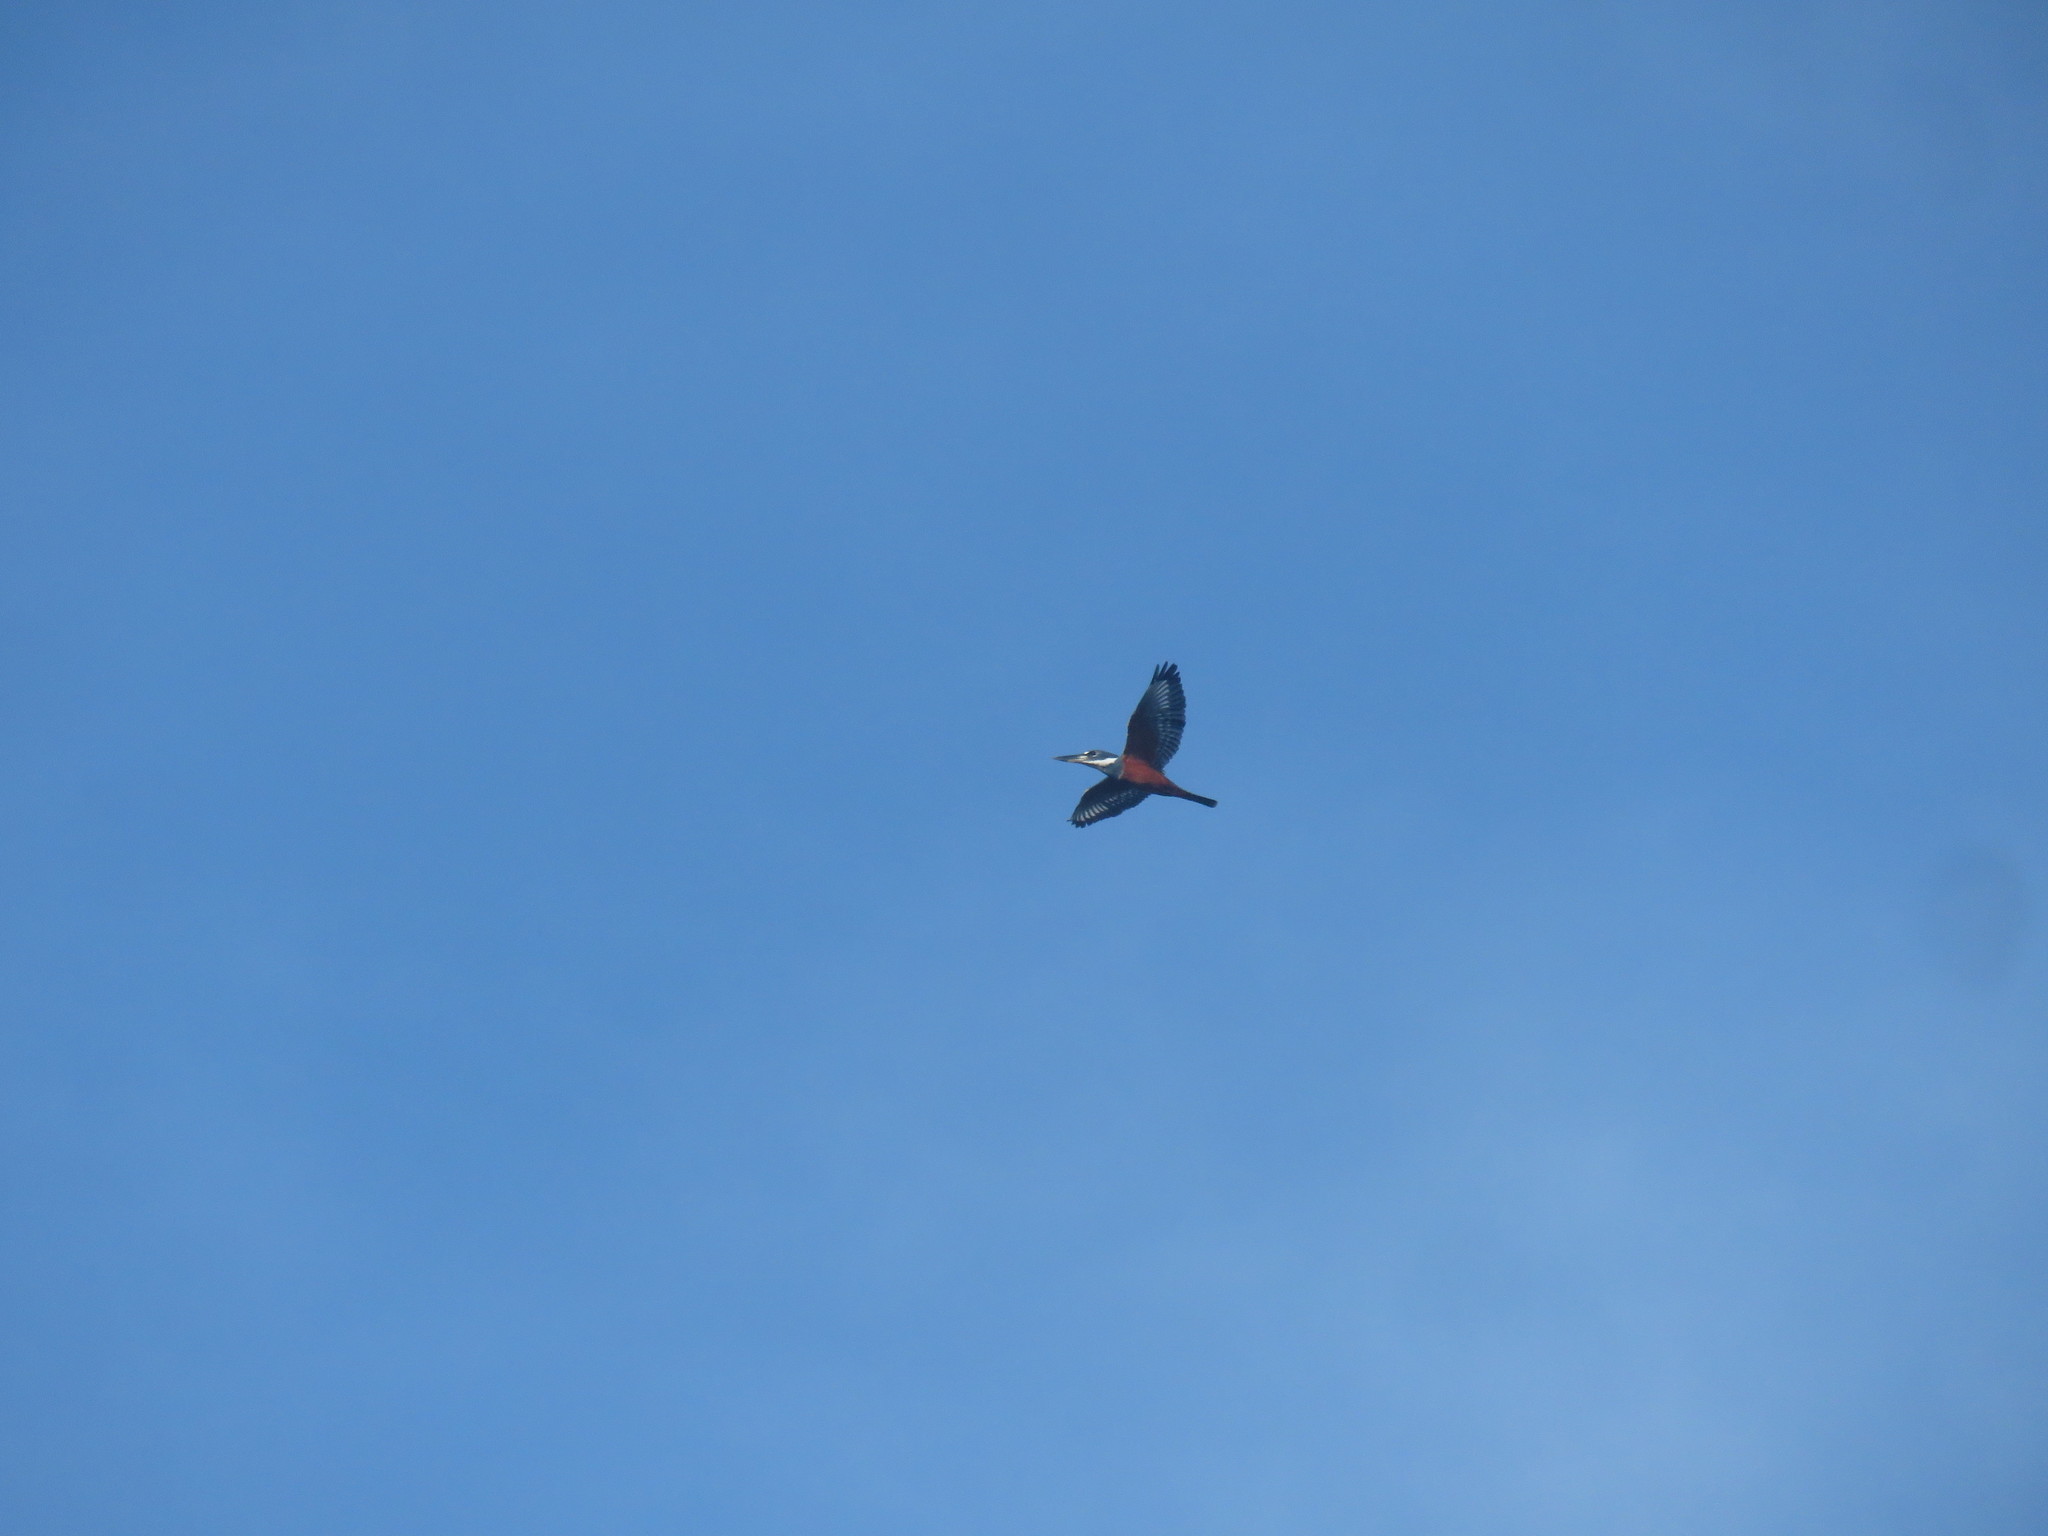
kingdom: Animalia
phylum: Chordata
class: Aves
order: Coraciiformes
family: Alcedinidae
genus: Megaceryle
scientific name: Megaceryle torquata
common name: Ringed kingfisher
